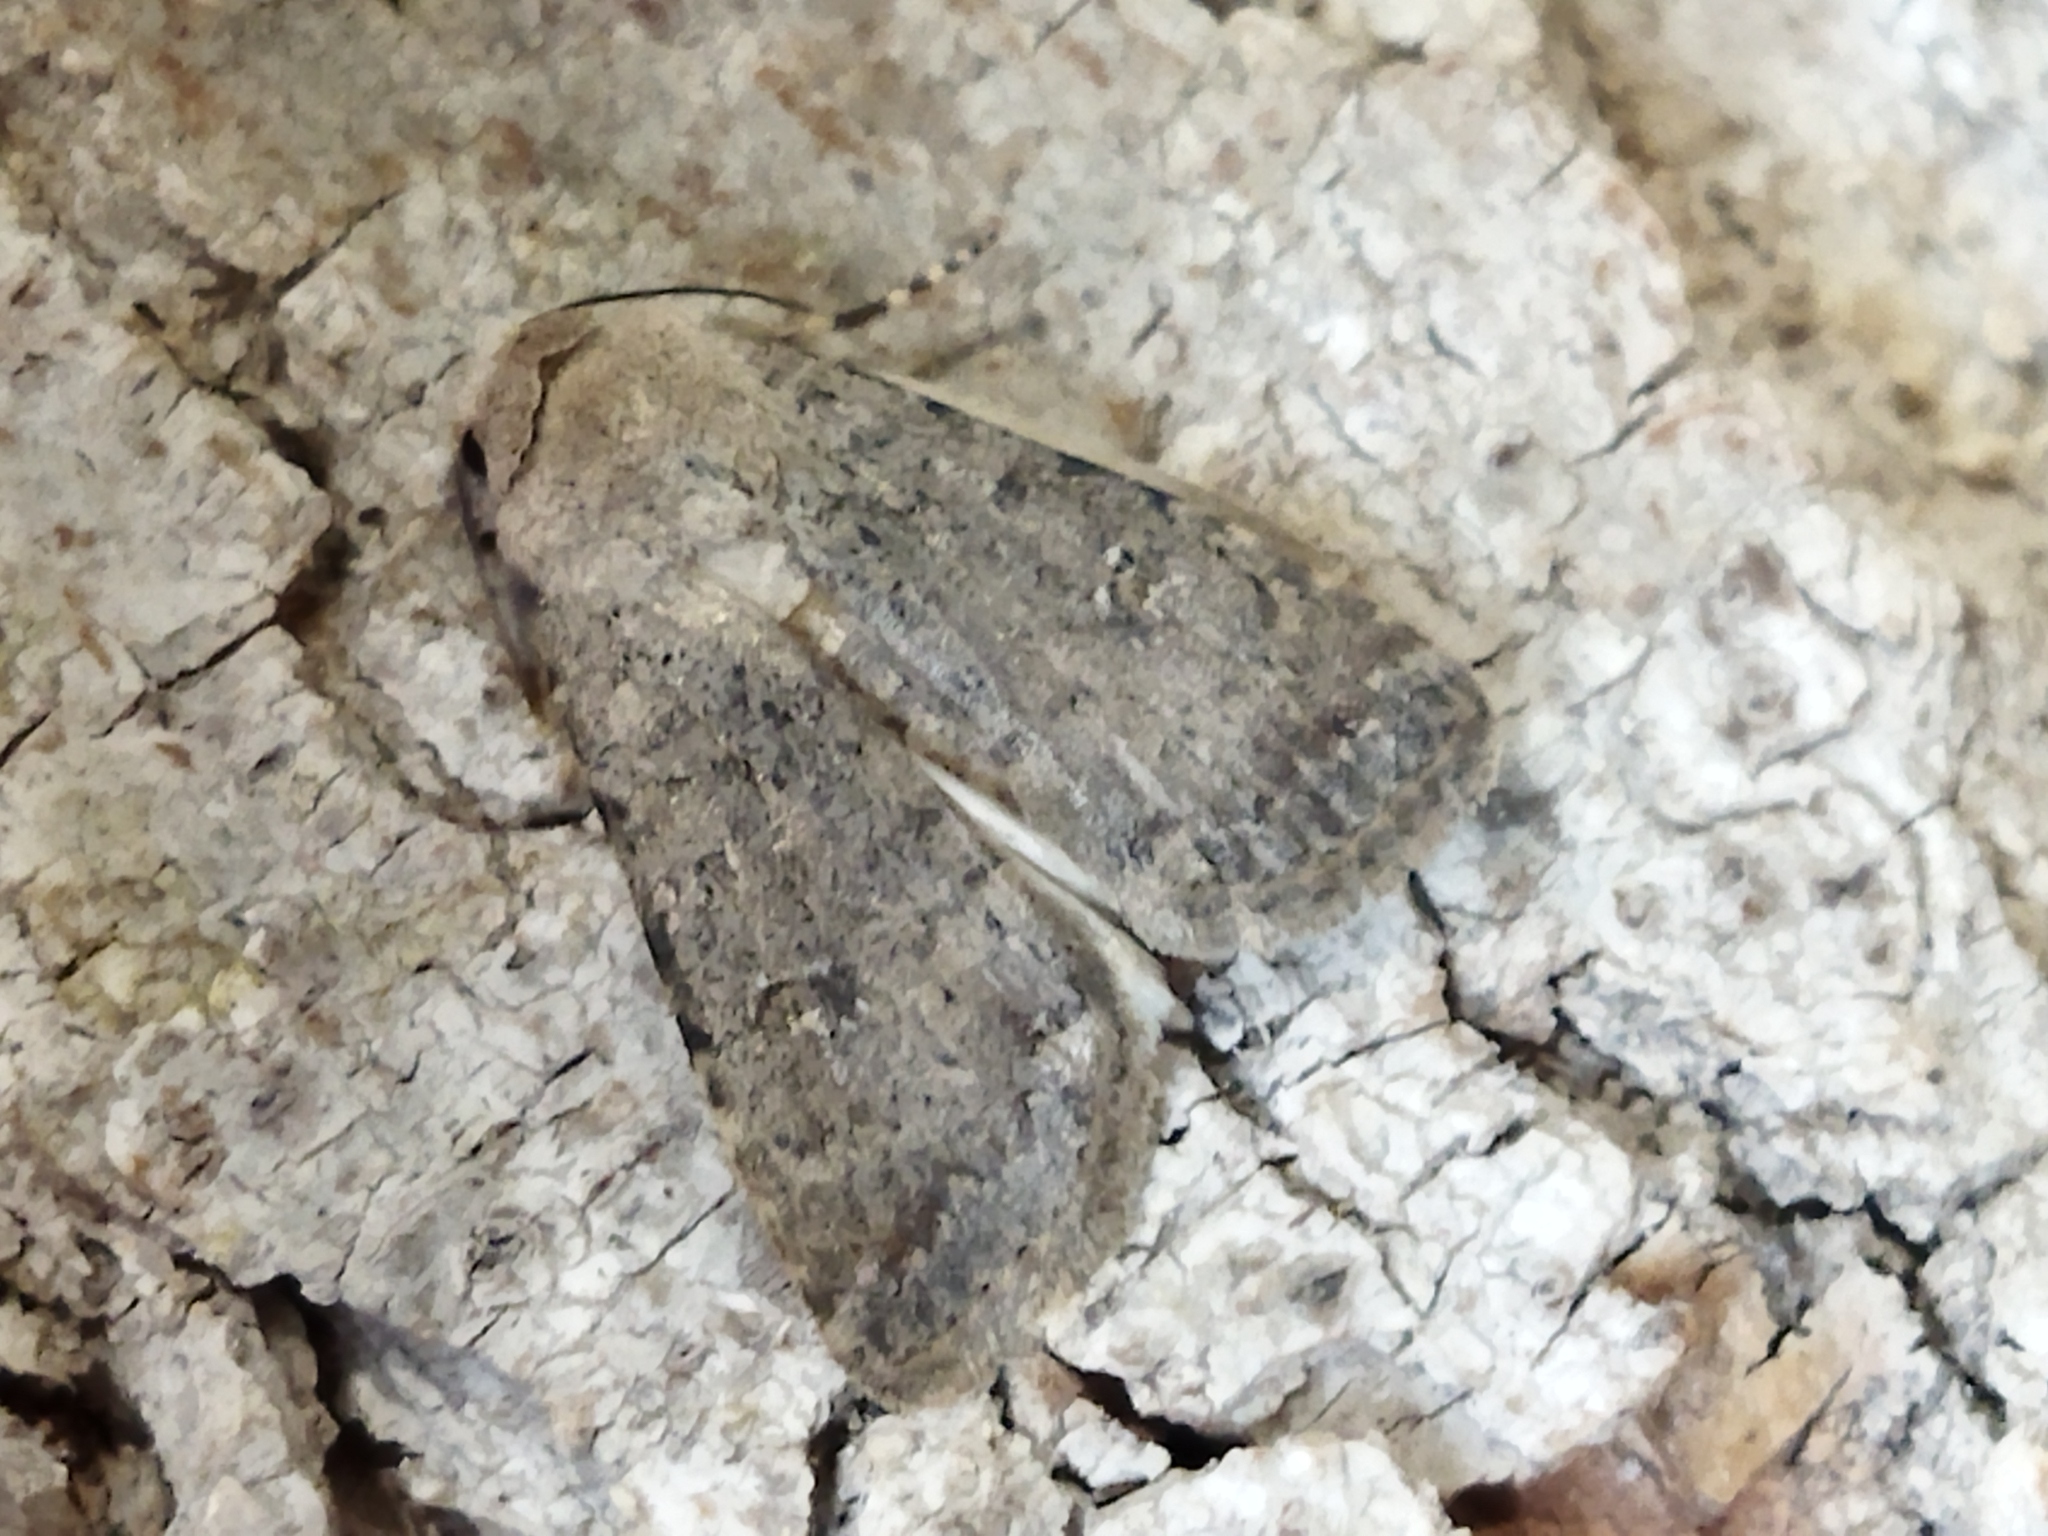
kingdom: Animalia
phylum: Arthropoda
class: Insecta
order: Lepidoptera
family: Noctuidae
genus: Caradrina
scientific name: Caradrina clavipalpis
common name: Pale mottled willow
